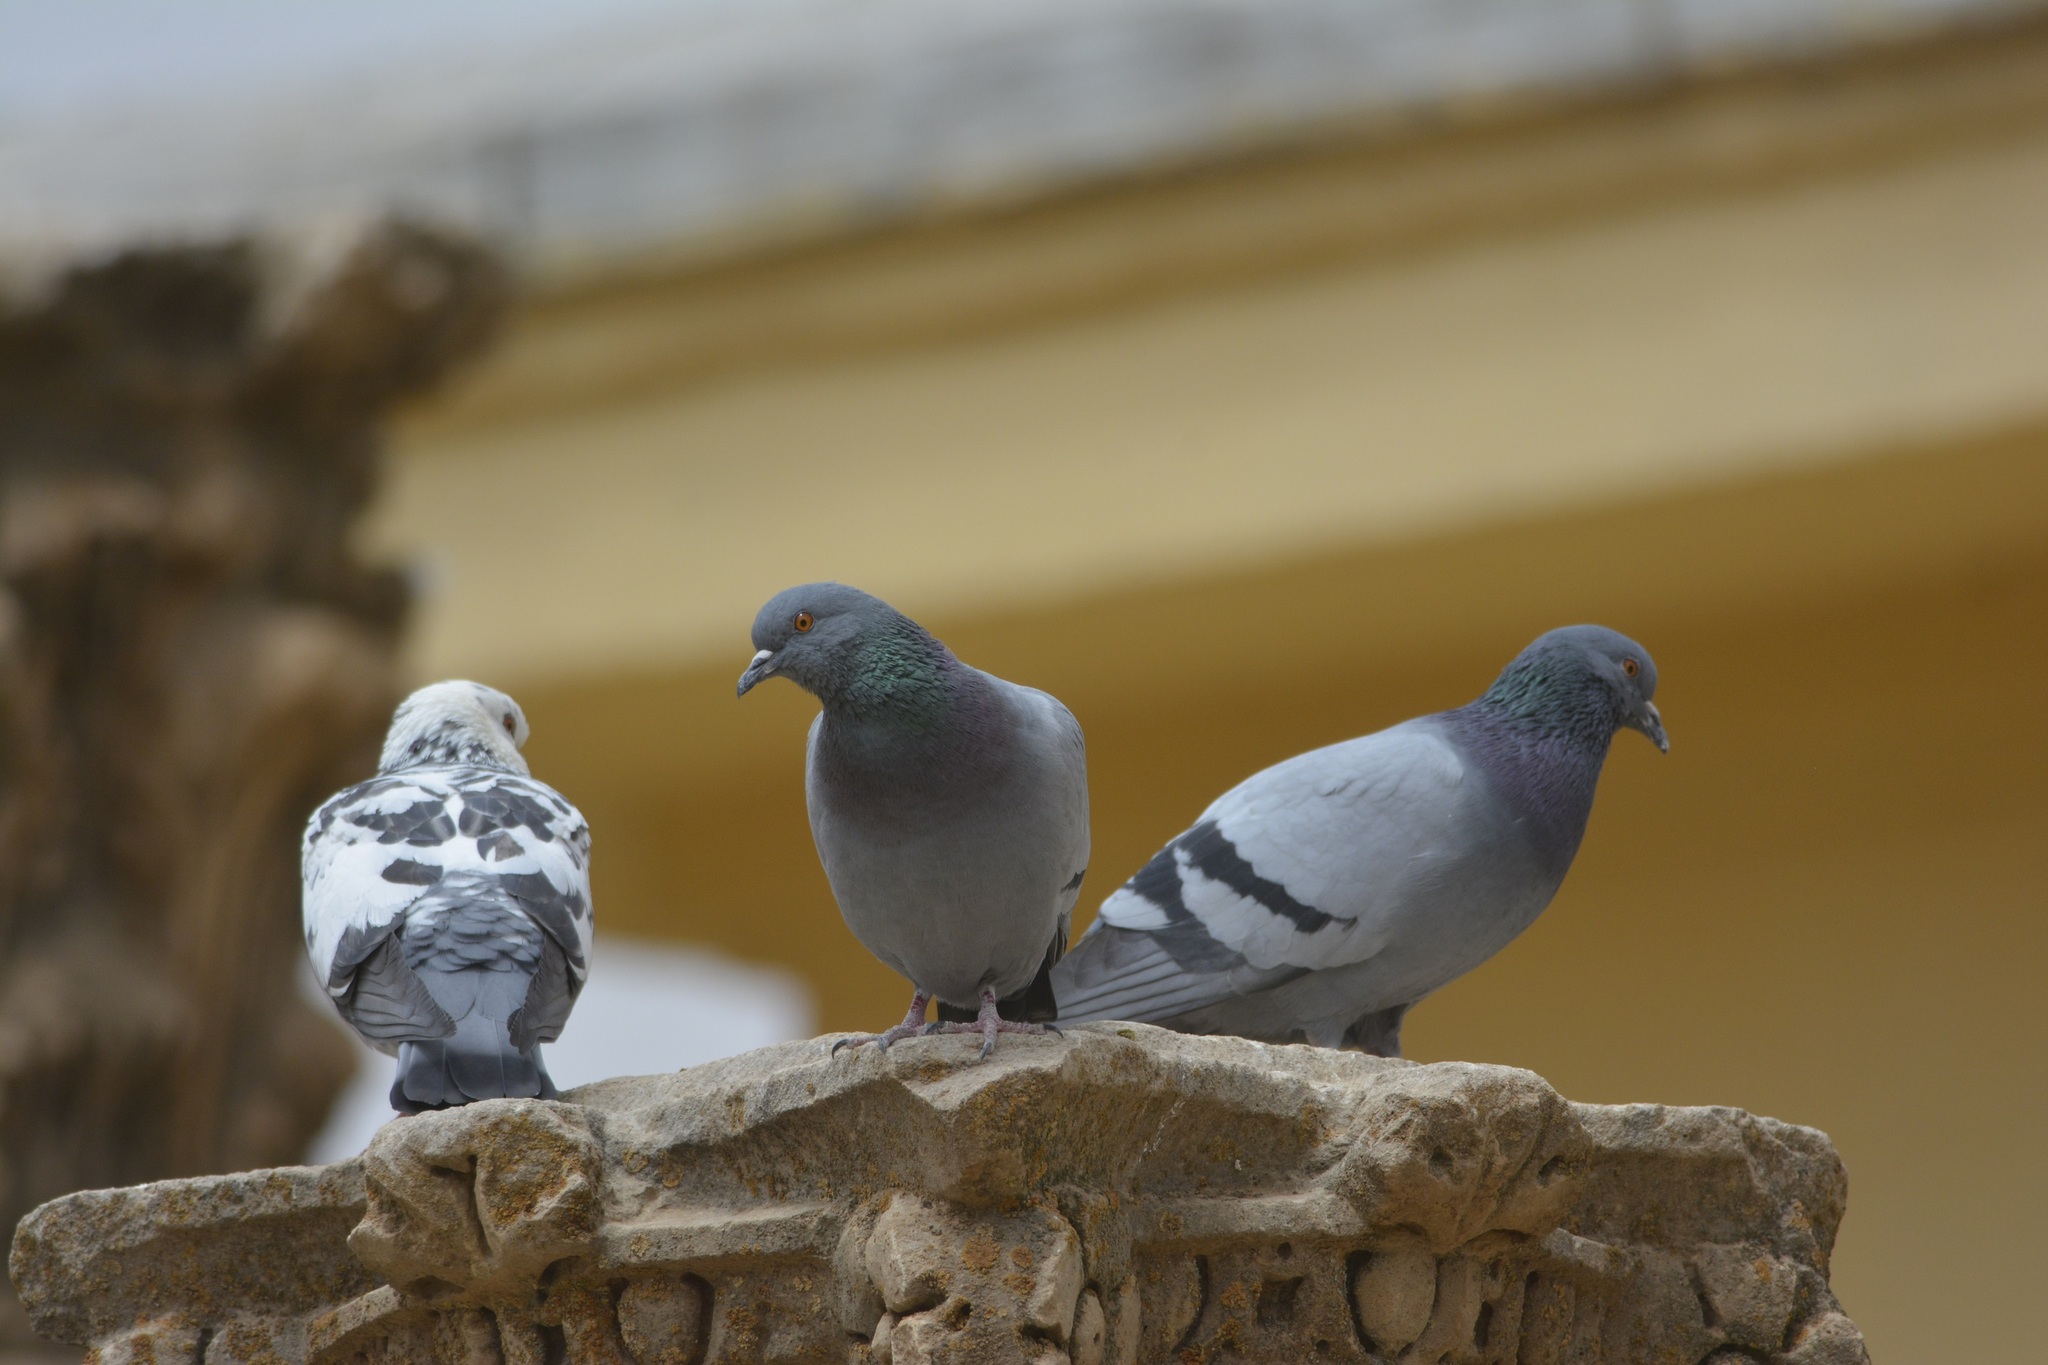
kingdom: Animalia
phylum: Chordata
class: Aves
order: Columbiformes
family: Columbidae
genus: Columba
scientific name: Columba livia
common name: Rock pigeon
